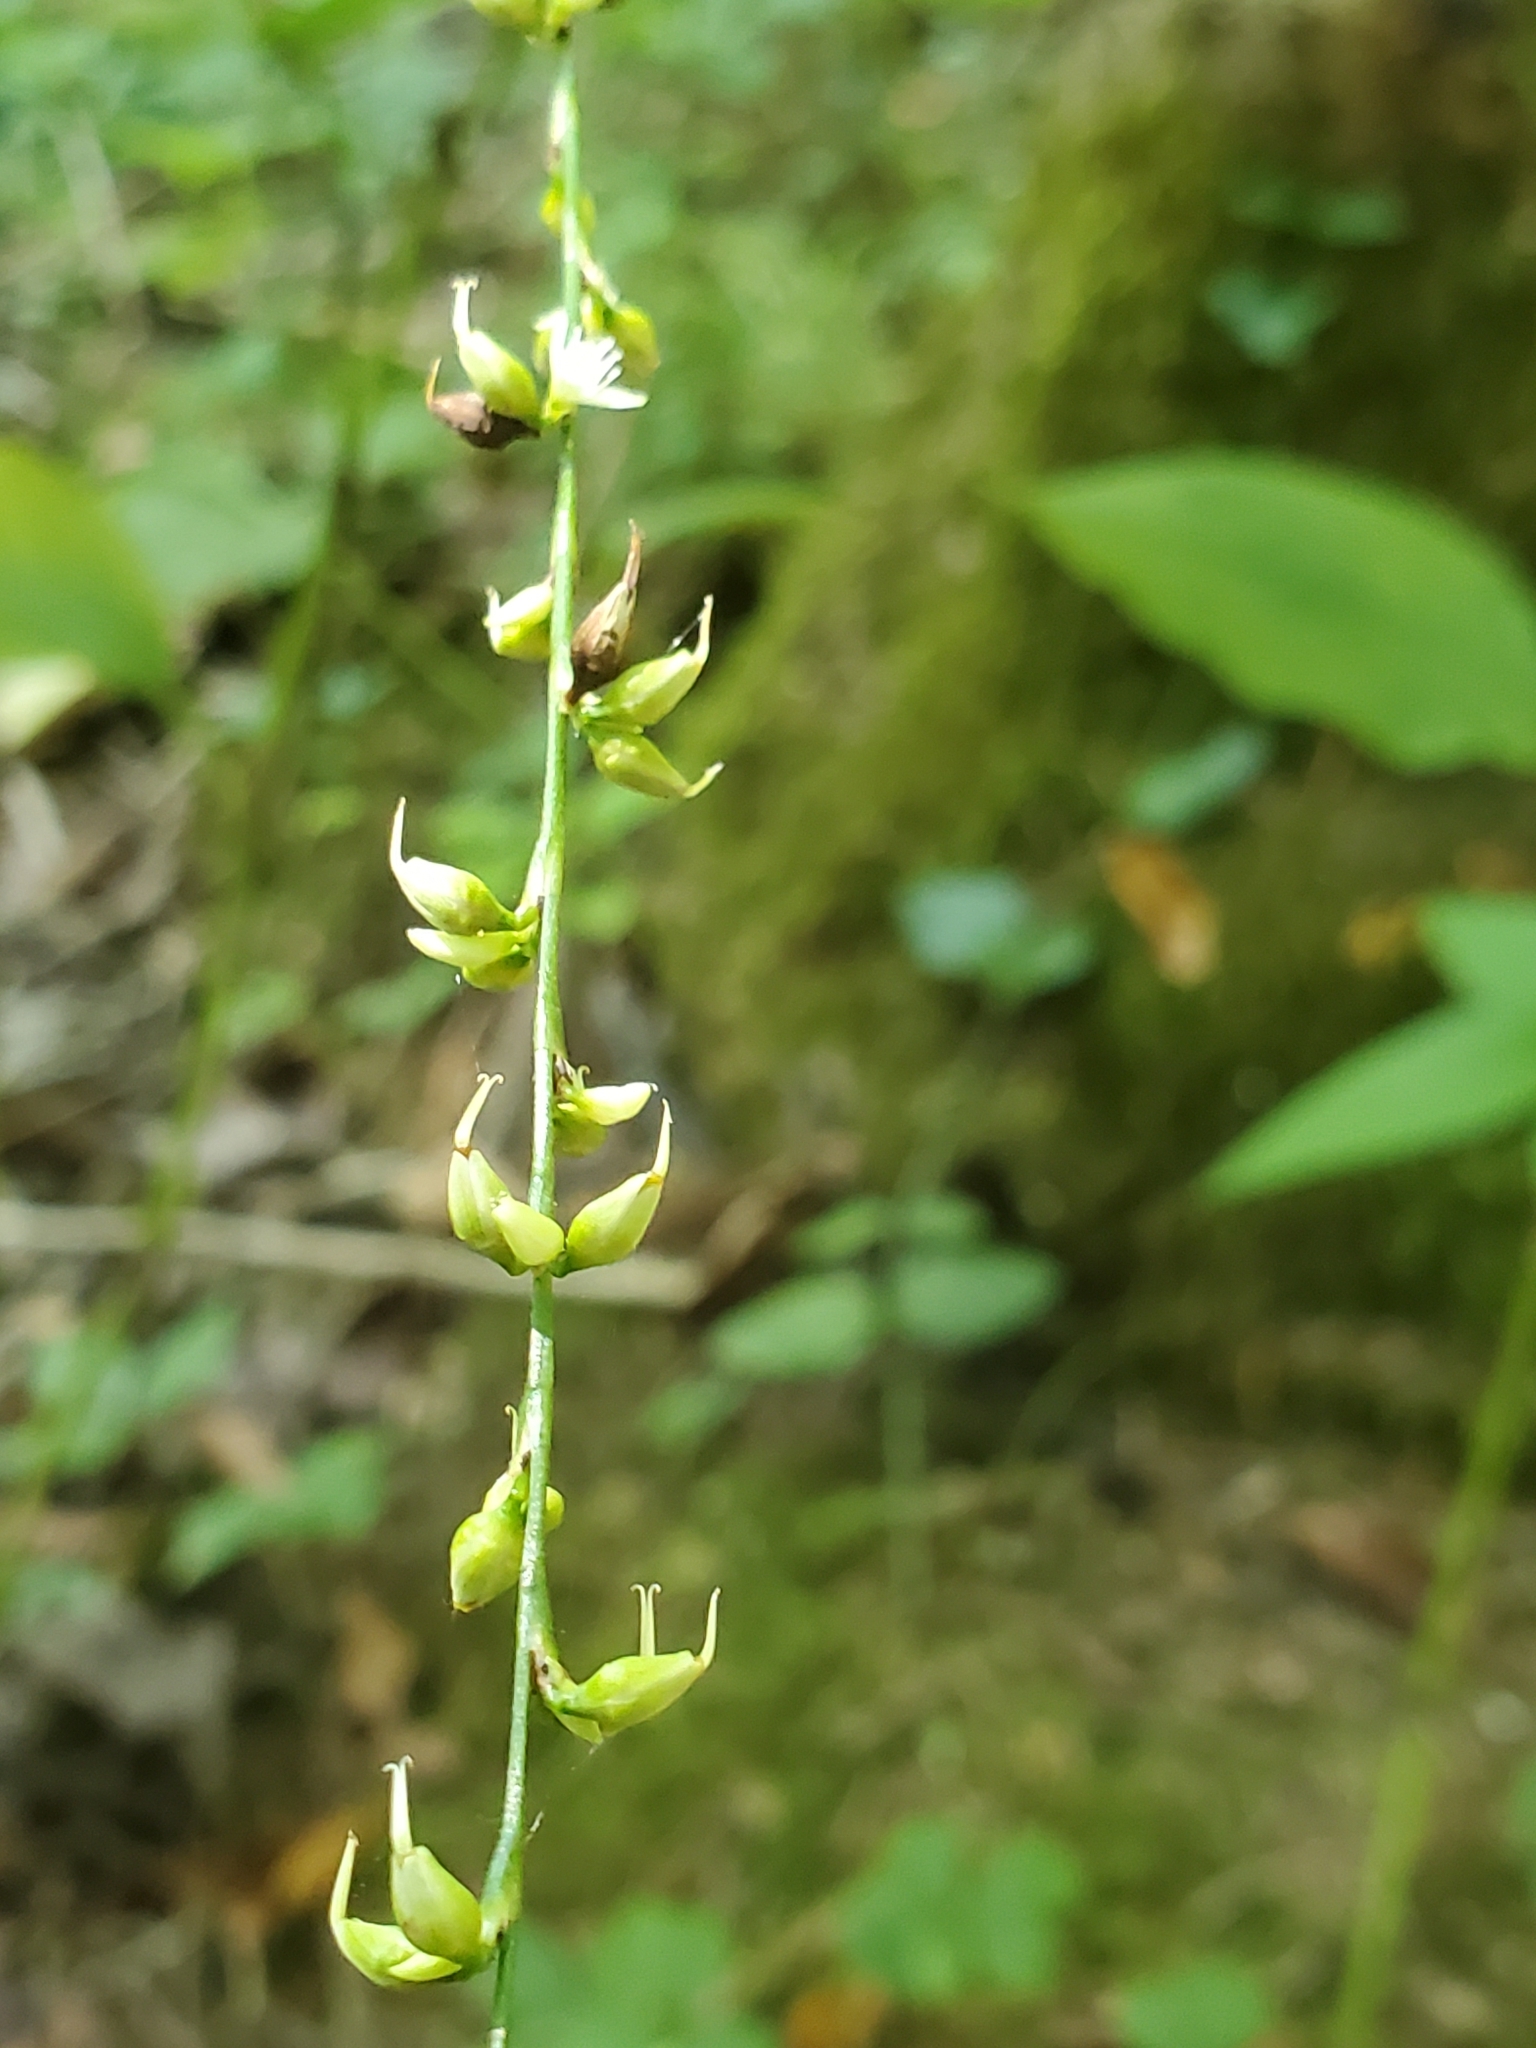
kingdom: Plantae
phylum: Tracheophyta
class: Magnoliopsida
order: Caryophyllales
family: Polygonaceae
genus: Persicaria
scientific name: Persicaria virginiana
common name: Jumpseed
